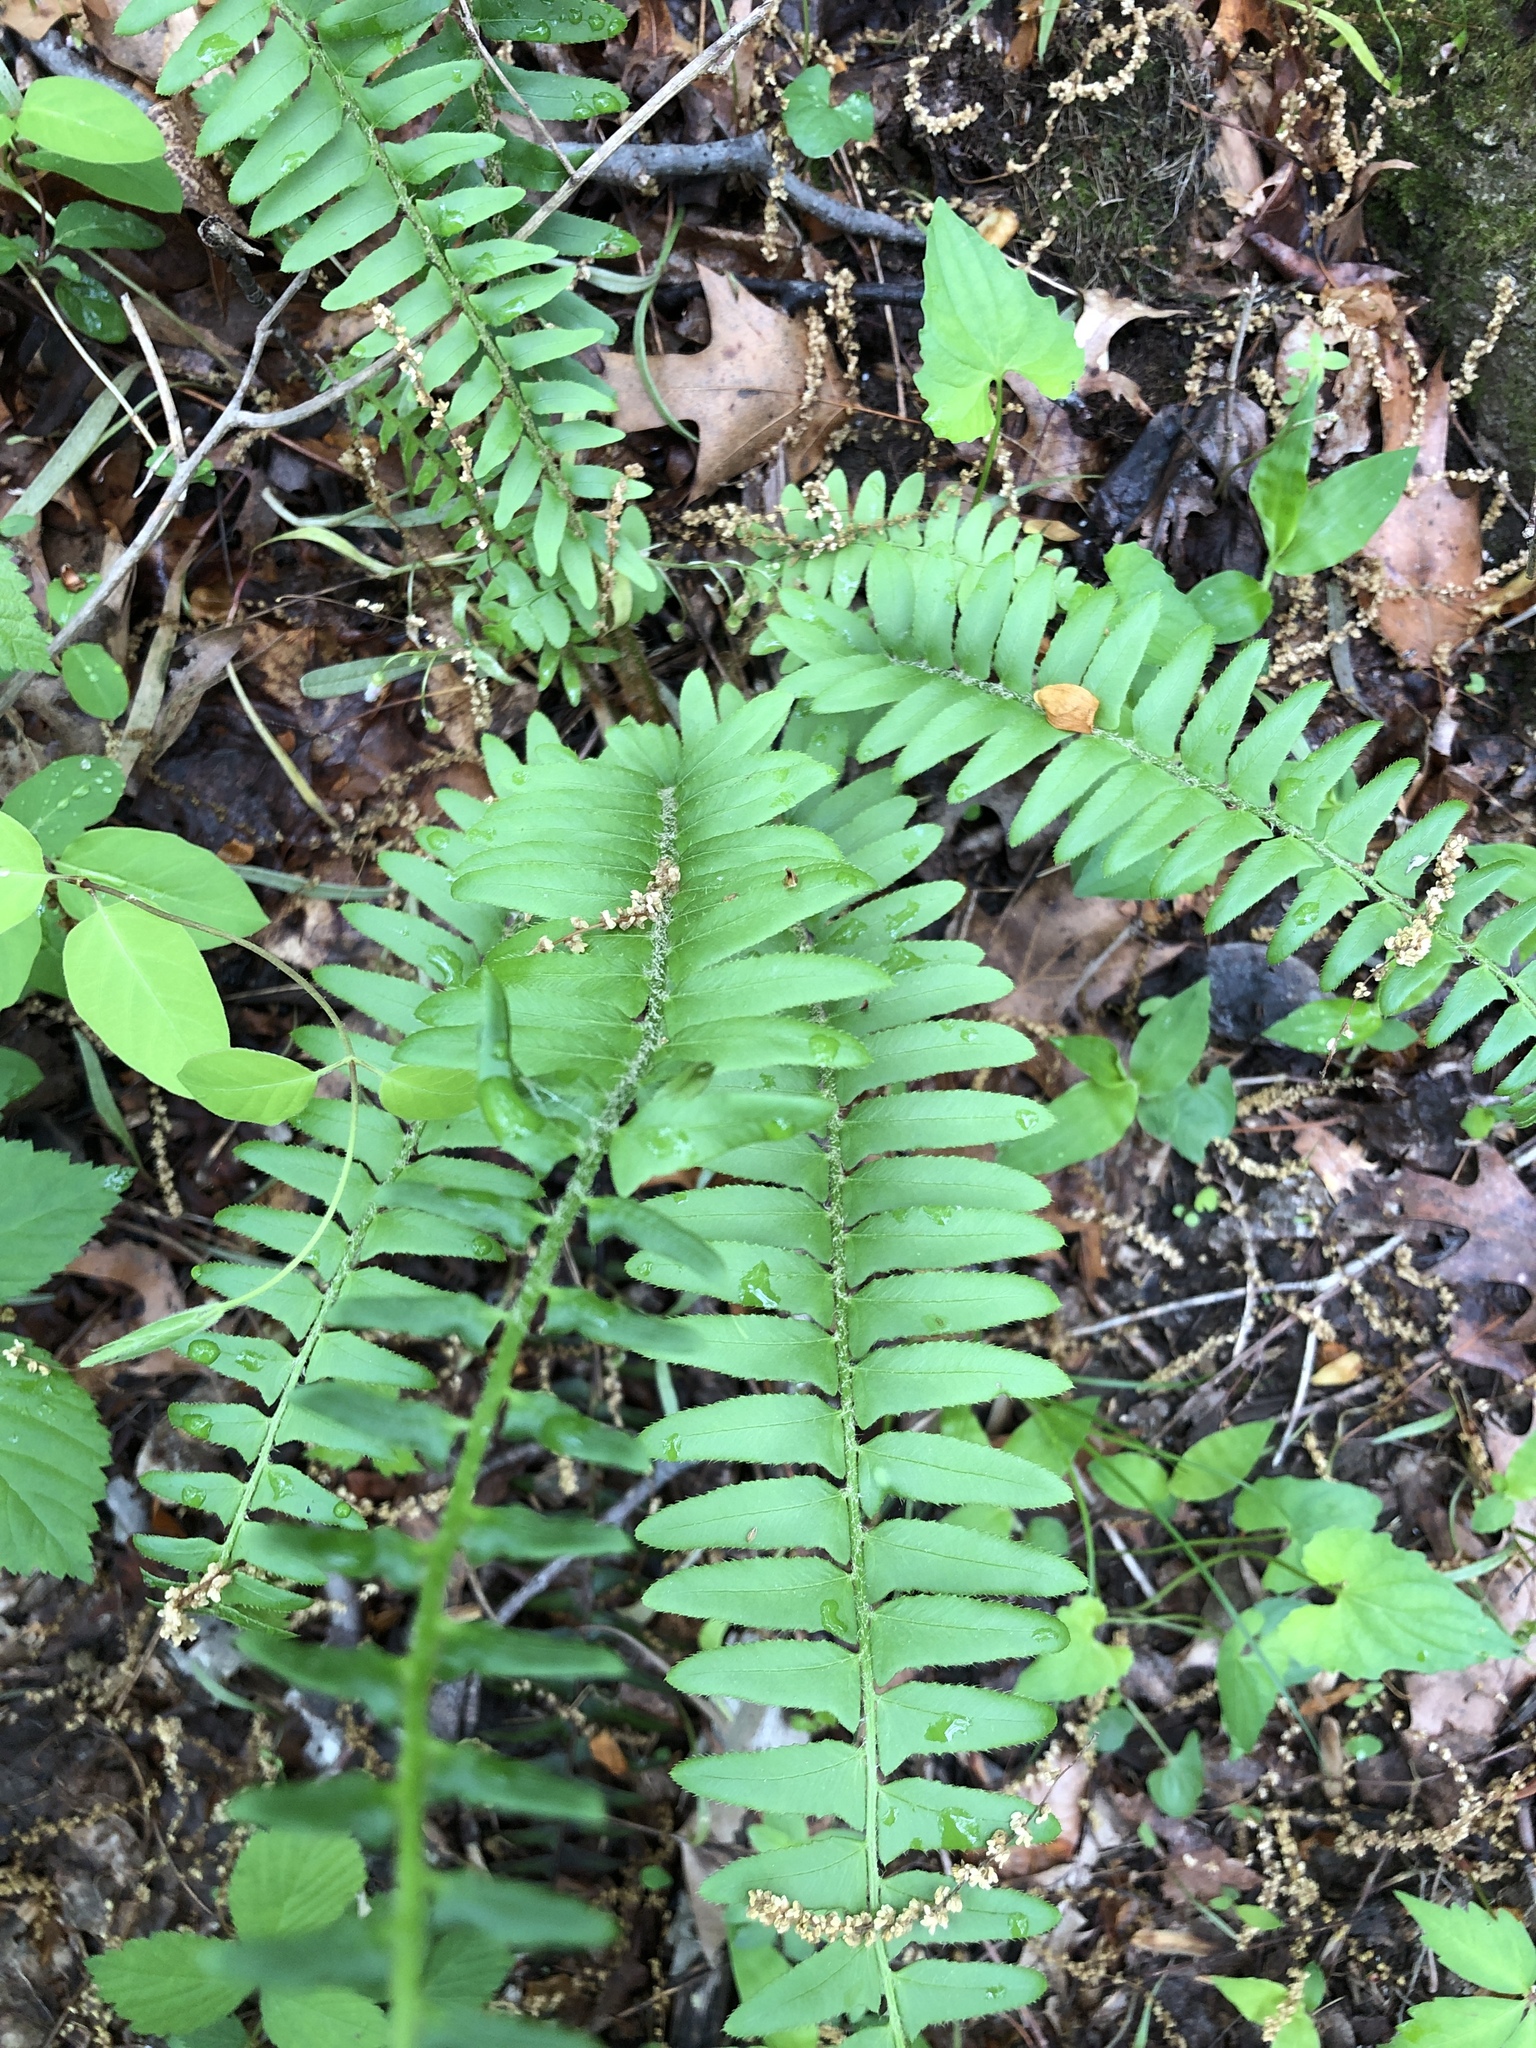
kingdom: Plantae
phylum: Tracheophyta
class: Polypodiopsida
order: Polypodiales
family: Dryopteridaceae
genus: Polystichum
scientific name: Polystichum acrostichoides
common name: Christmas fern
